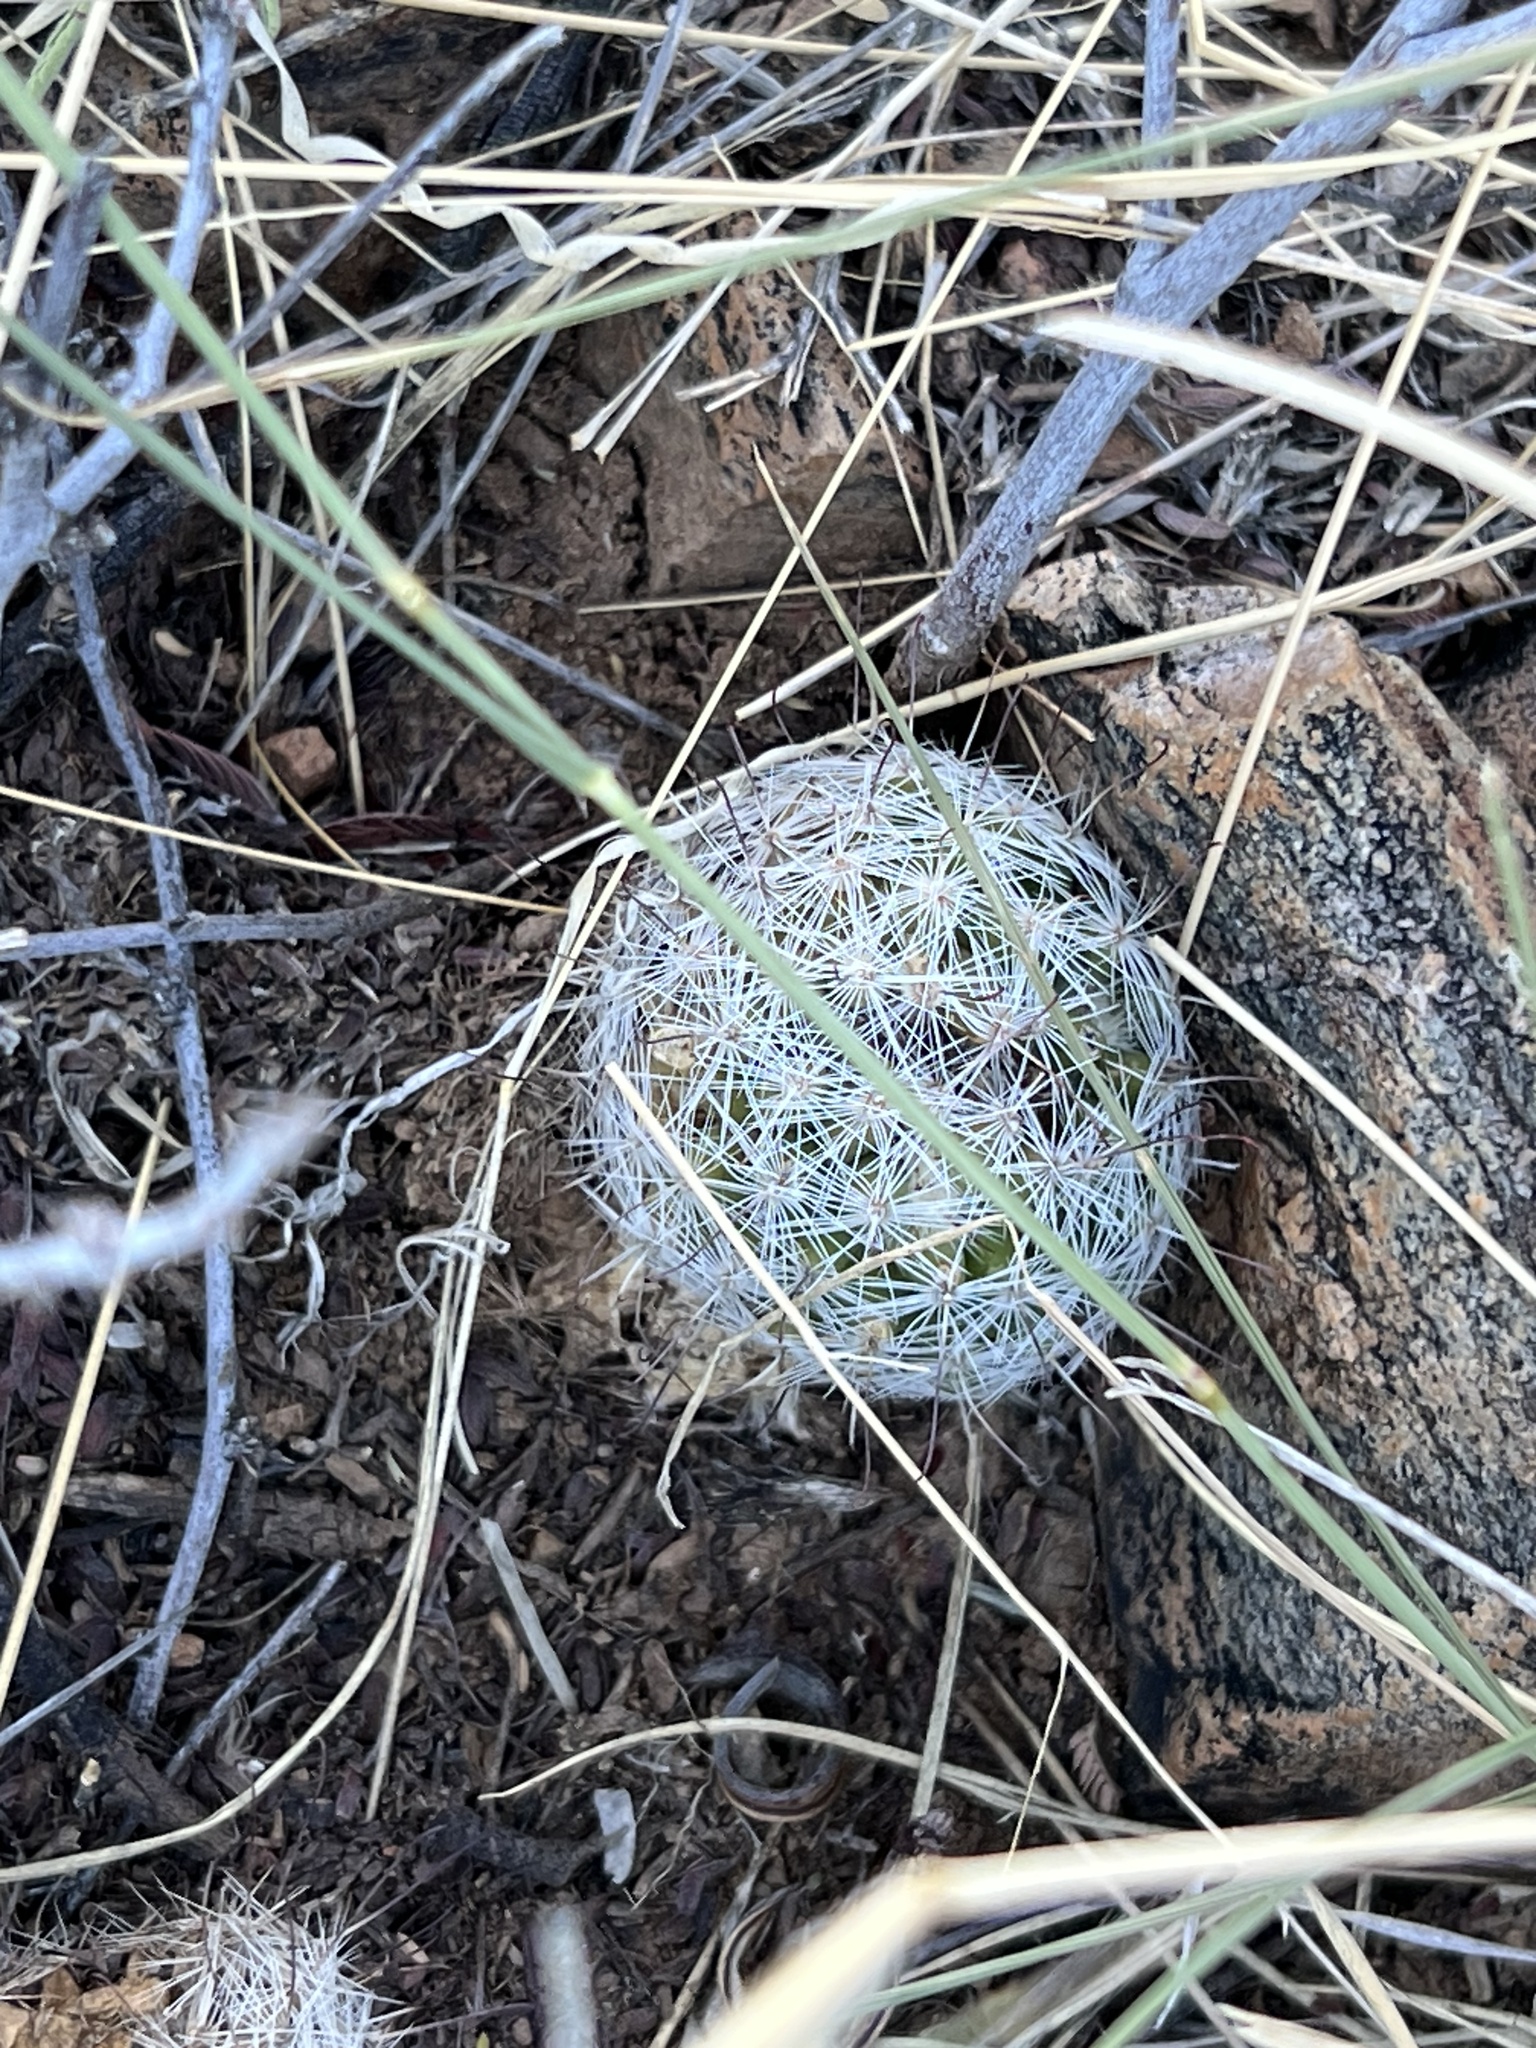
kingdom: Plantae
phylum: Tracheophyta
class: Magnoliopsida
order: Caryophyllales
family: Cactaceae
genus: Pelecyphora
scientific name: Pelecyphora vivipara
